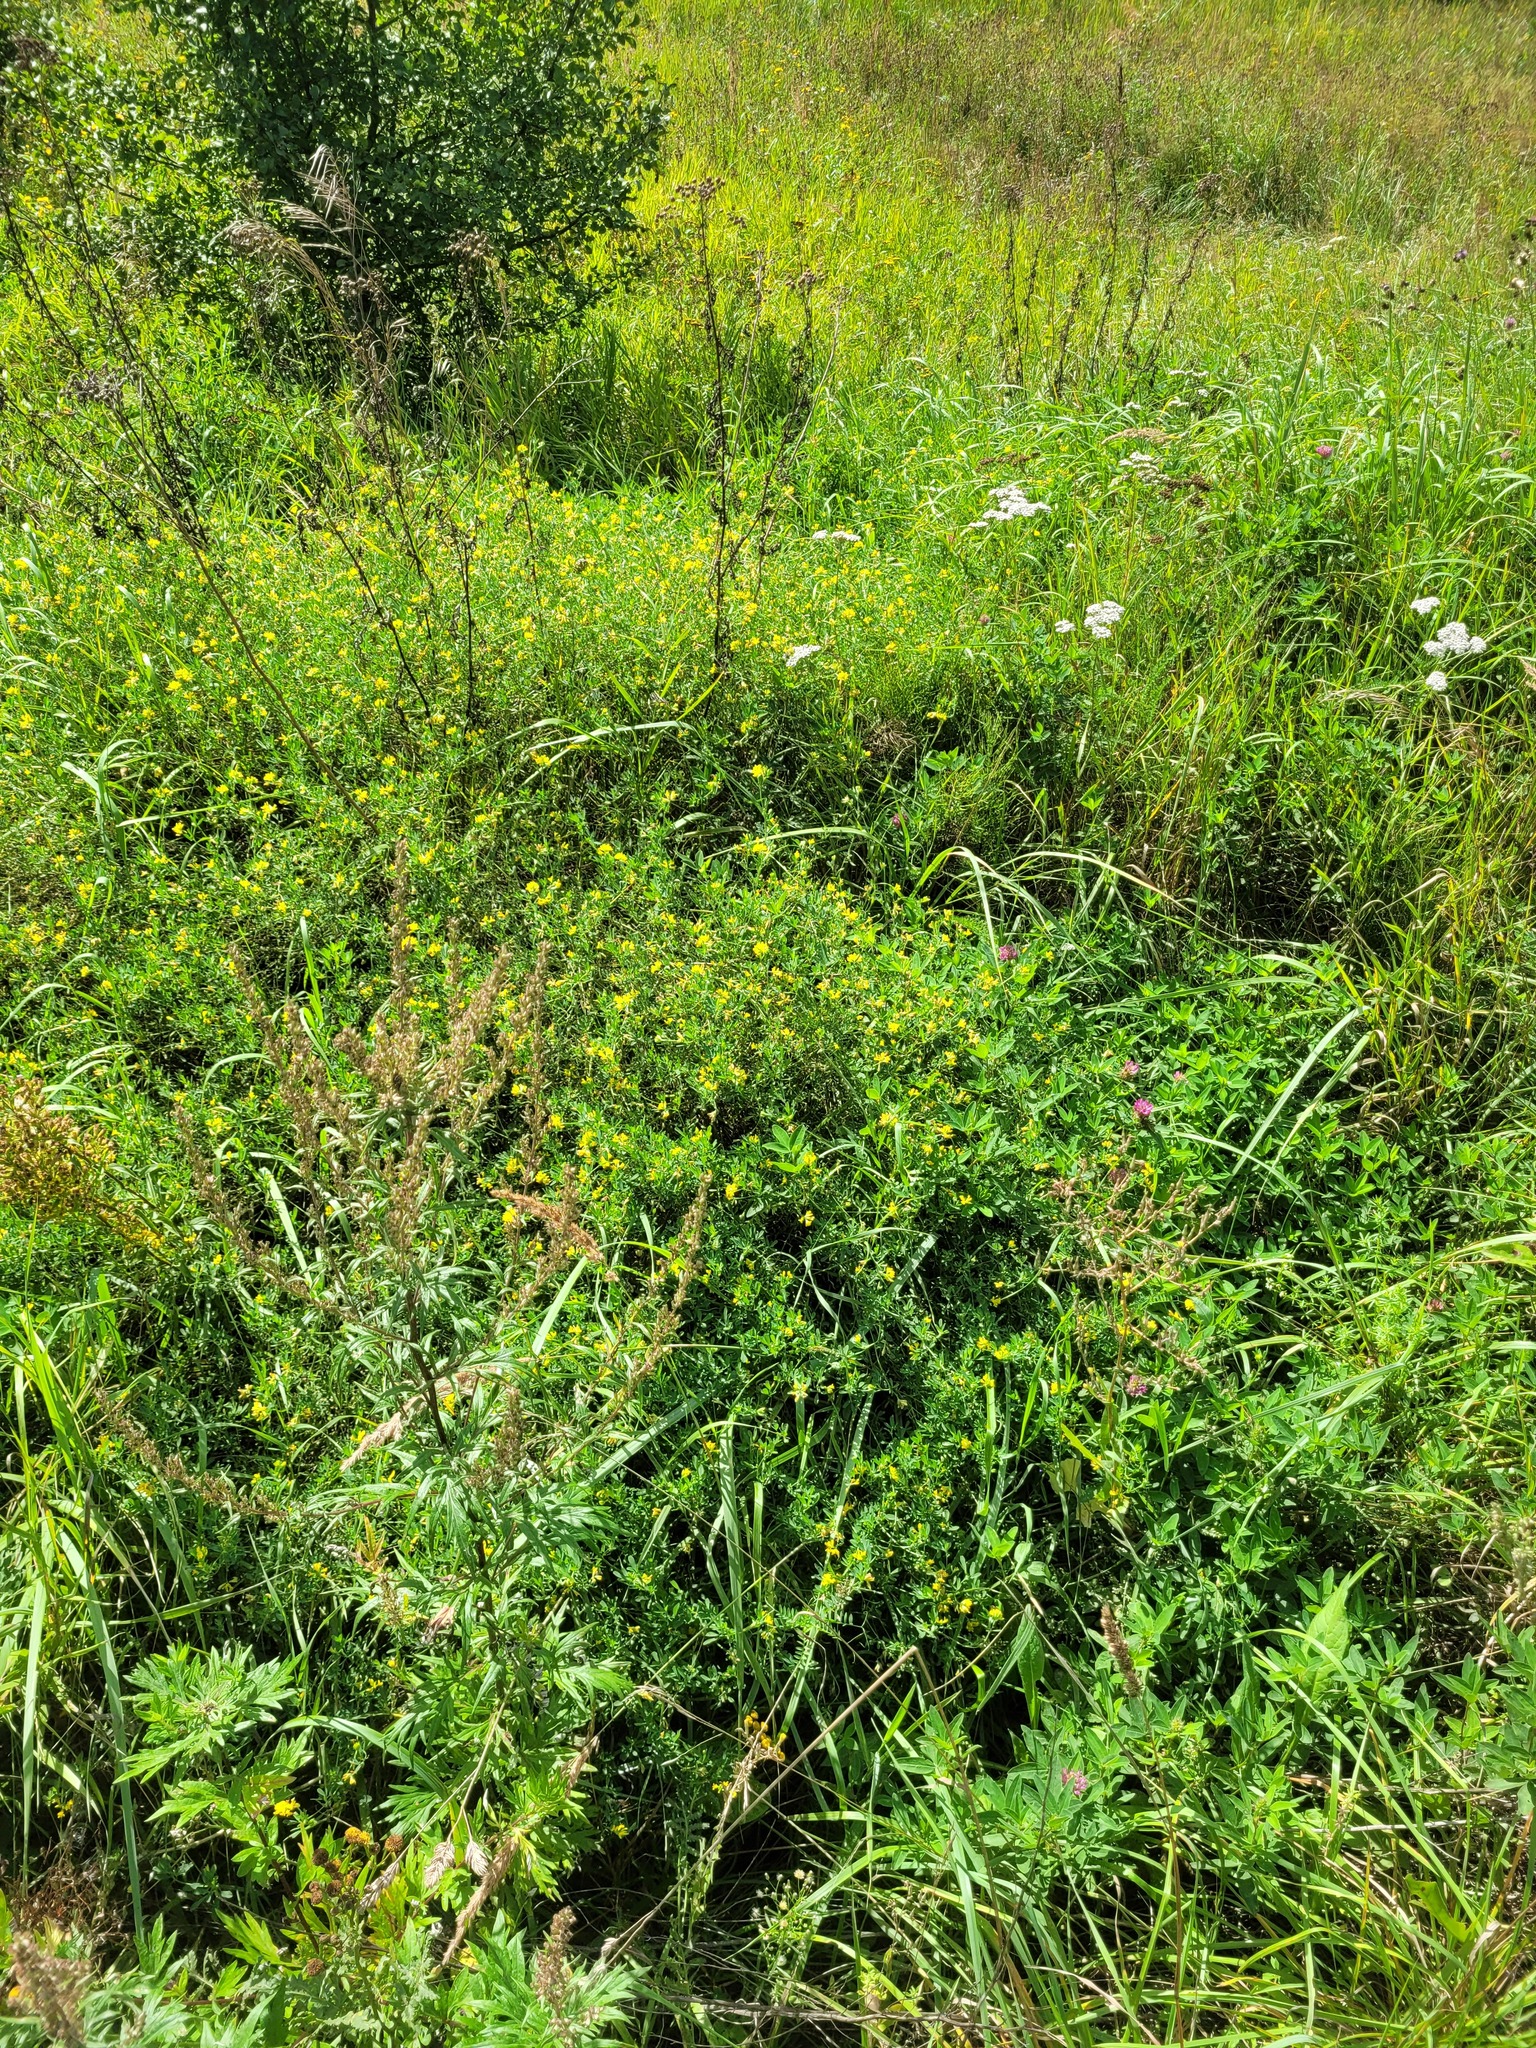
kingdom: Plantae
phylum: Tracheophyta
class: Magnoliopsida
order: Fabales
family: Fabaceae
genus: Medicago
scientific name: Medicago falcata
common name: Sickle medick
